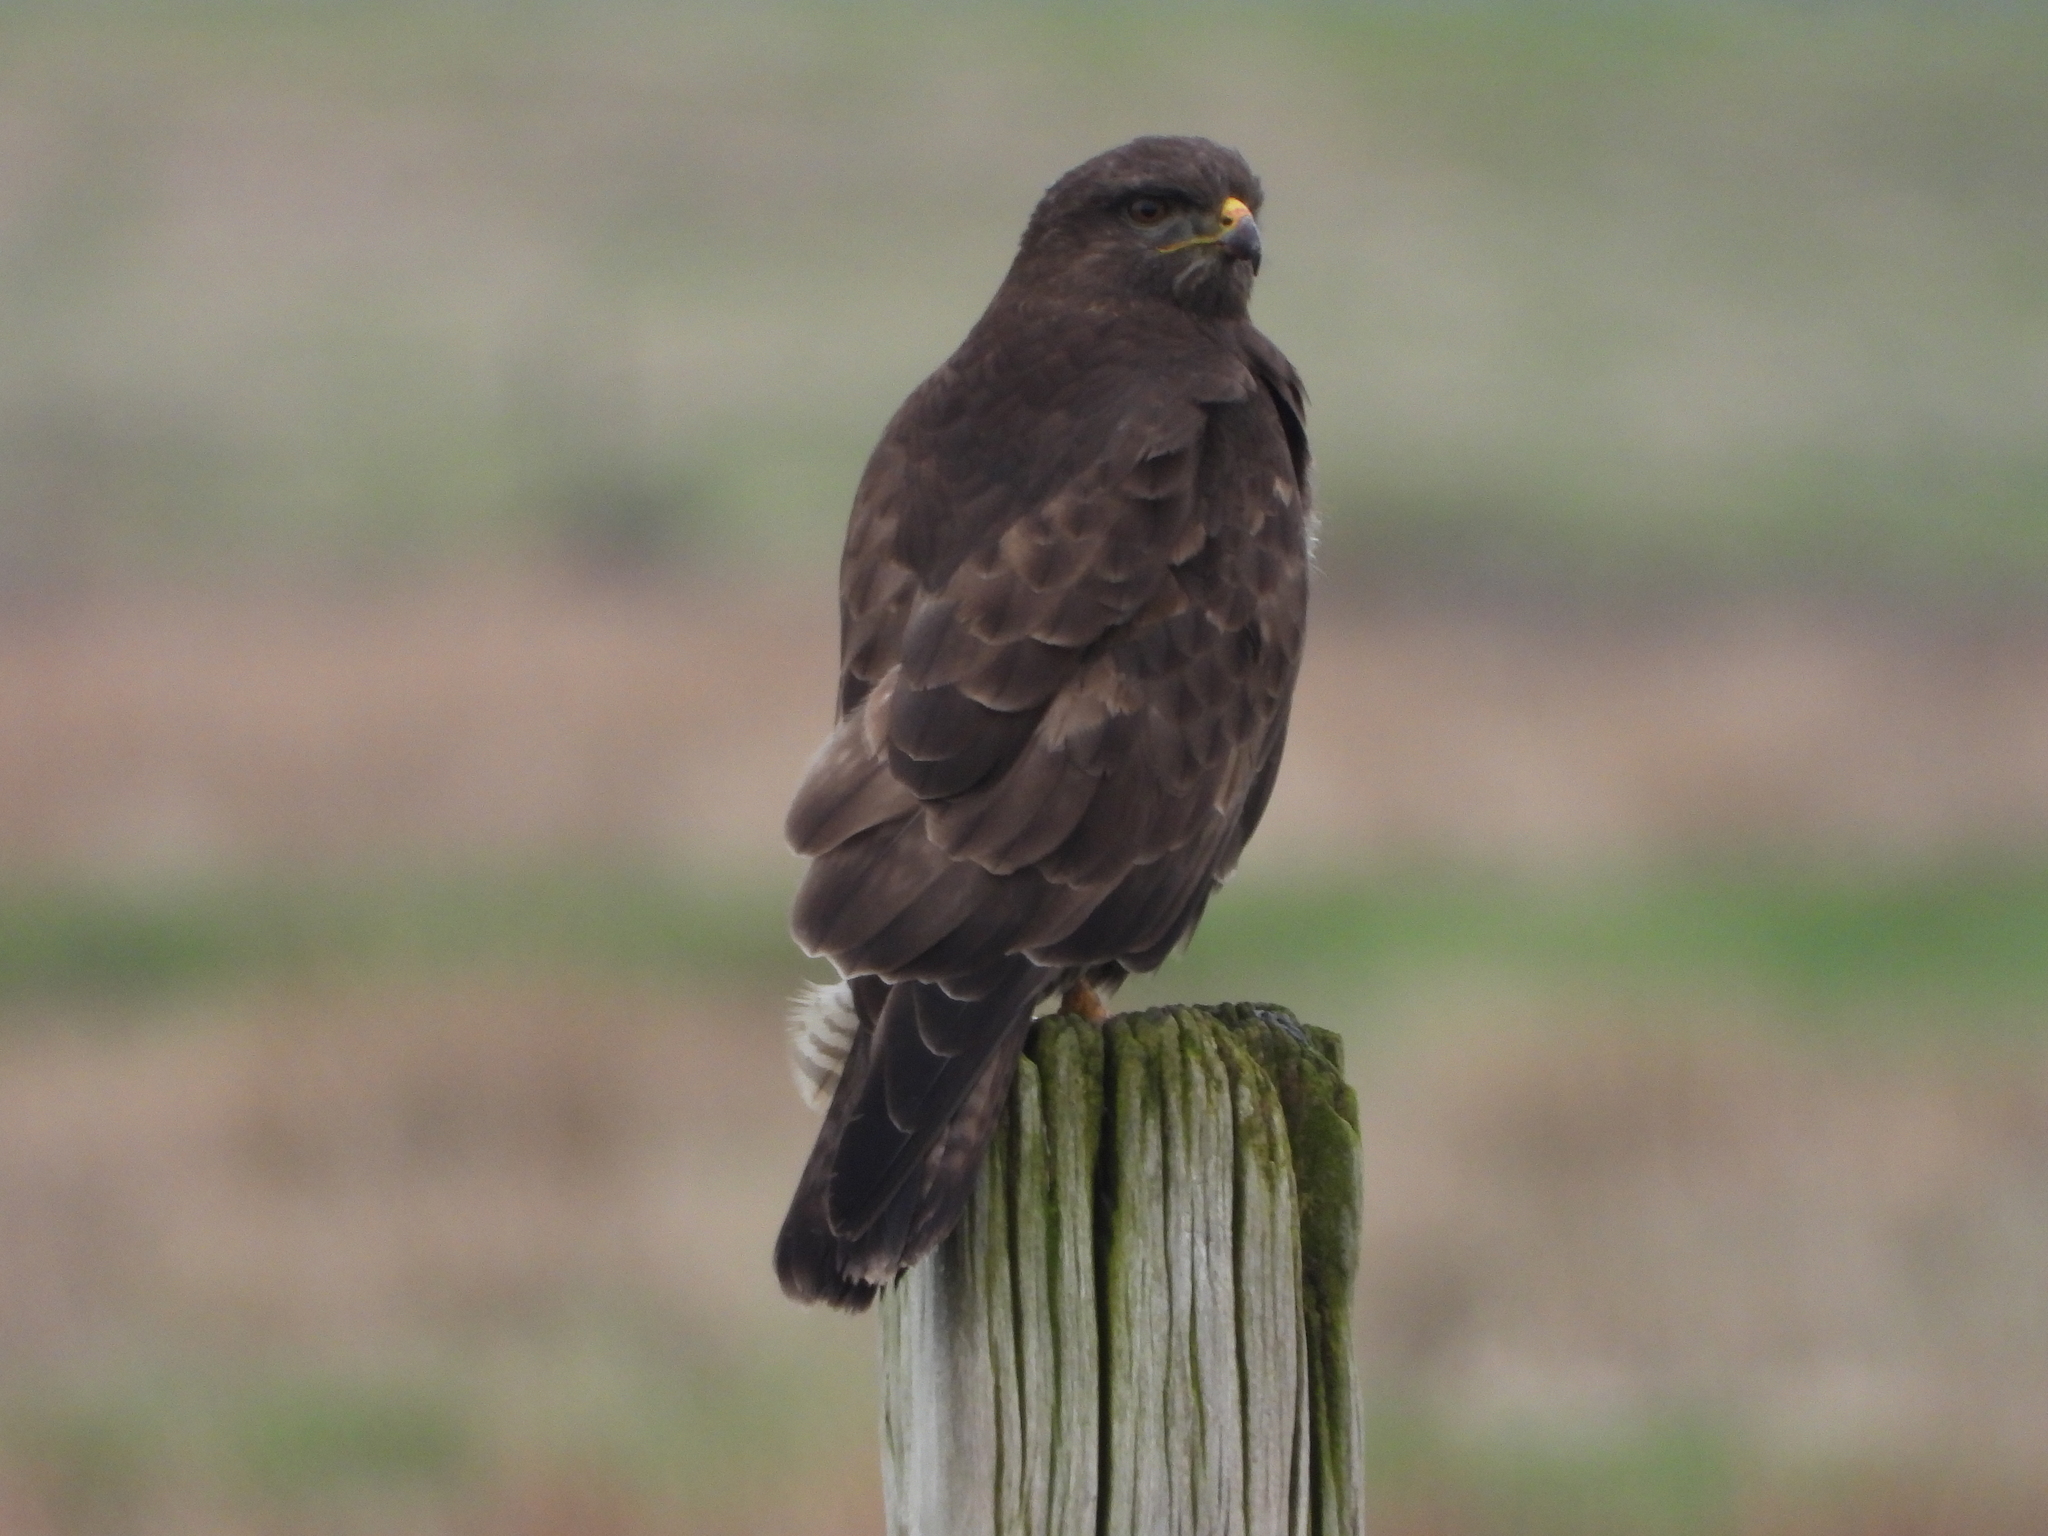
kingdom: Animalia
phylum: Chordata
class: Aves
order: Accipitriformes
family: Accipitridae
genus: Buteo
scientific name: Buteo buteo
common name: Common buzzard
